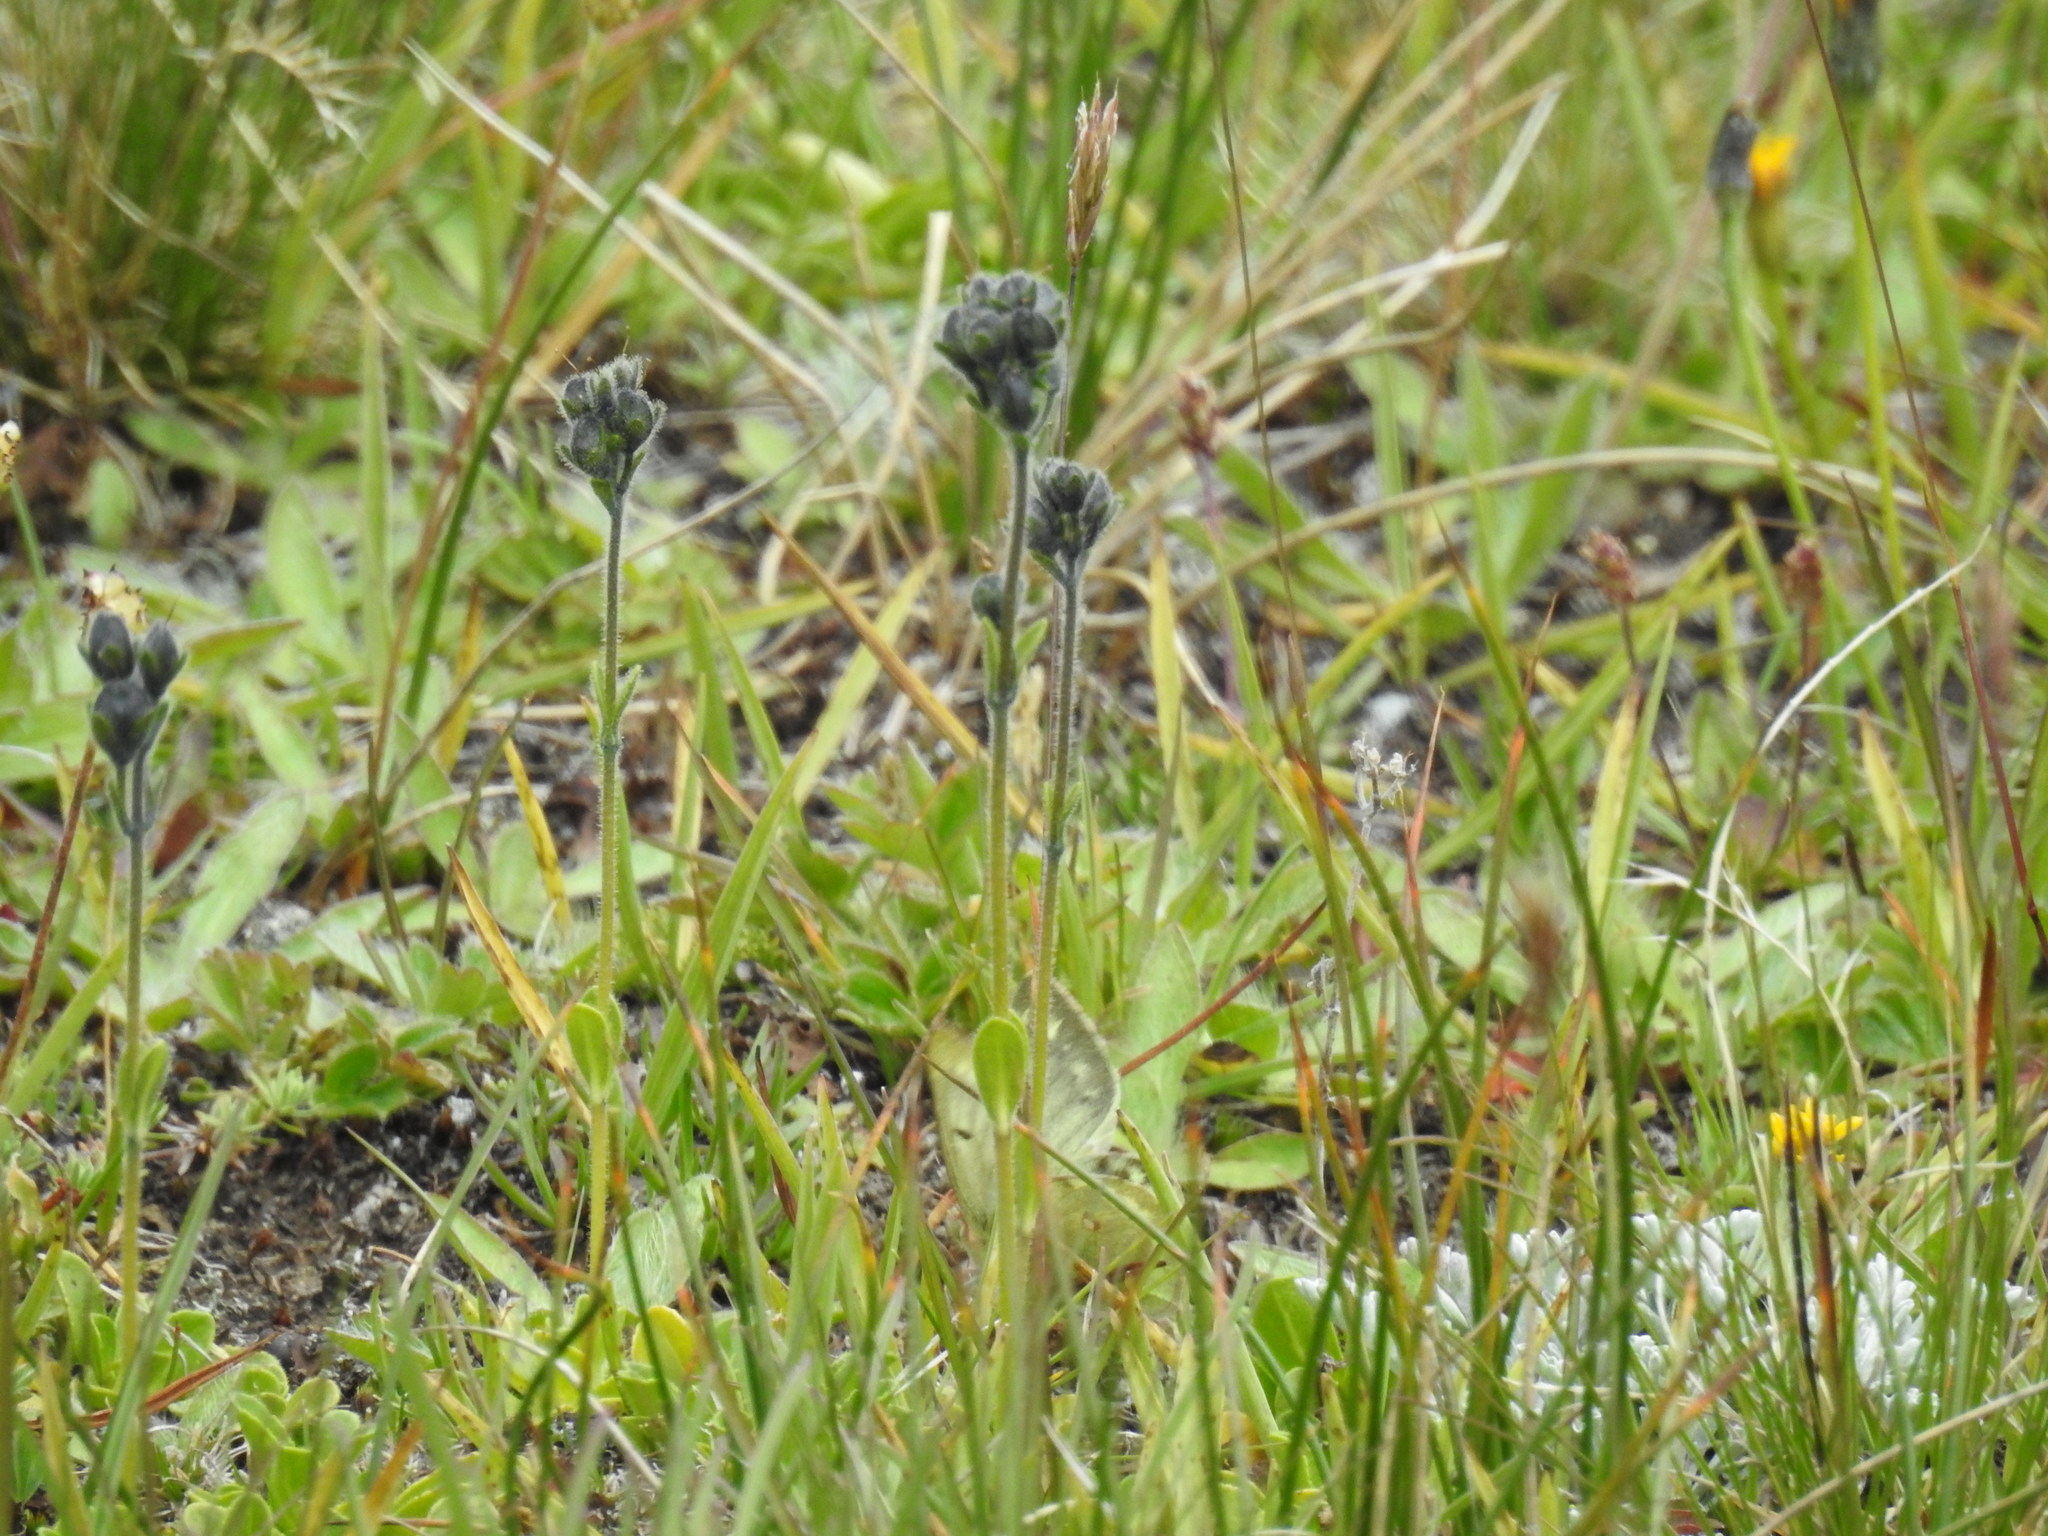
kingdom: Animalia
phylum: Arthropoda
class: Insecta
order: Lepidoptera
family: Pieridae
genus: Colias
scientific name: Colias phicomone
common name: Mountain clouded yellow
